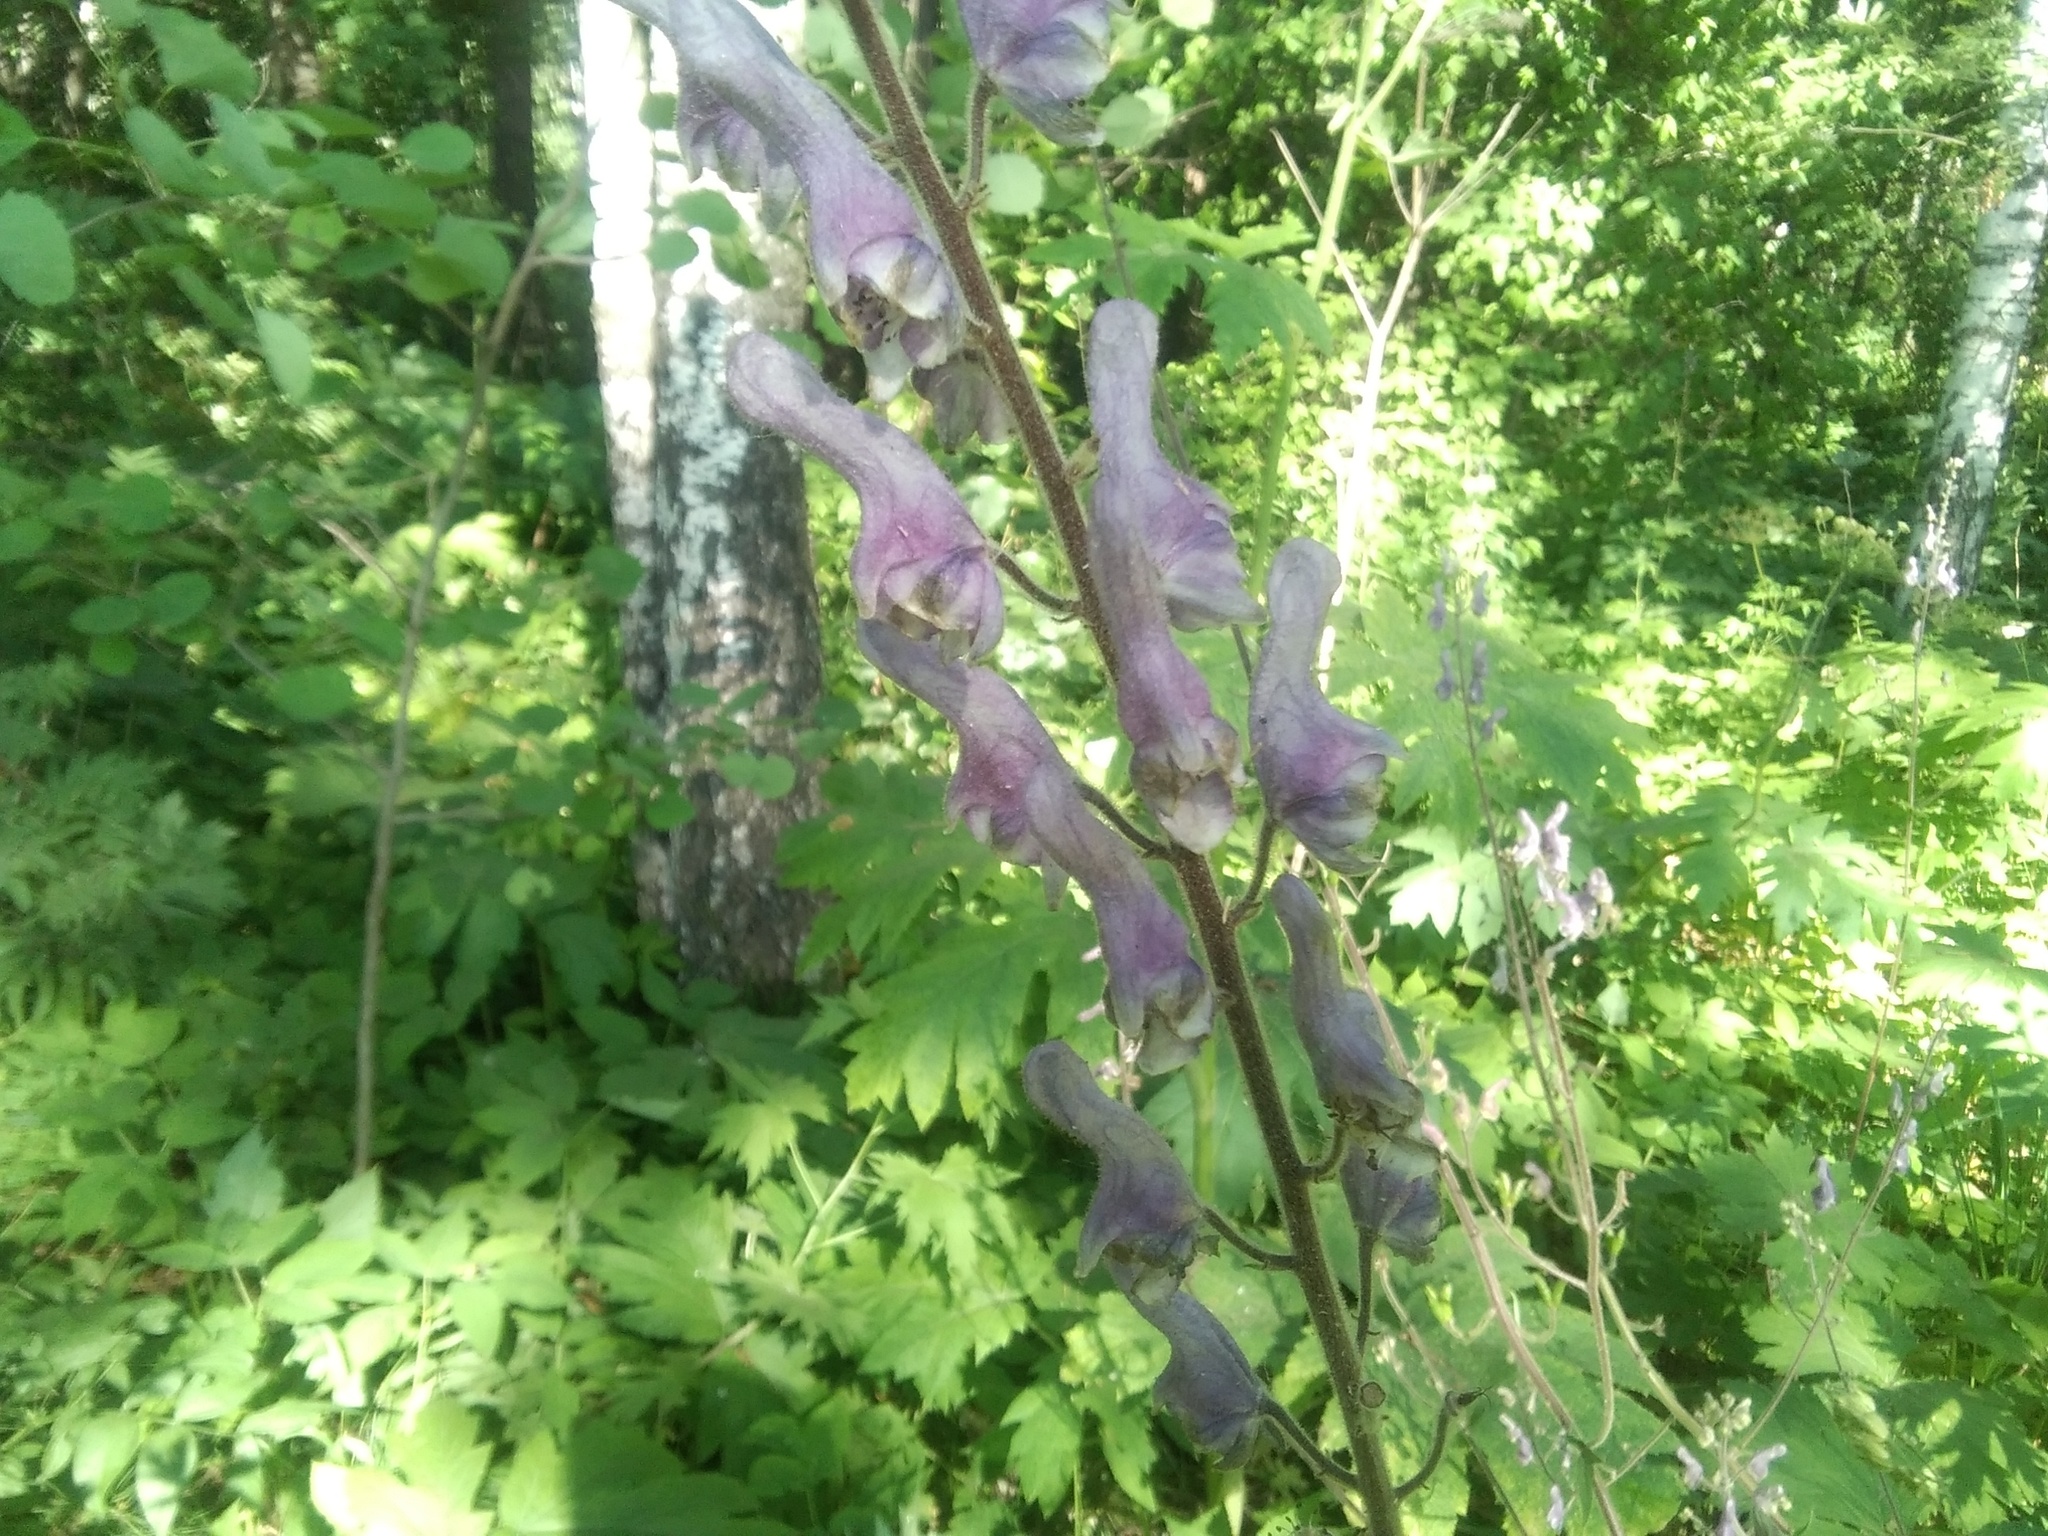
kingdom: Plantae
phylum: Tracheophyta
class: Magnoliopsida
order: Ranunculales
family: Ranunculaceae
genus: Aconitum
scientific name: Aconitum septentrionale
